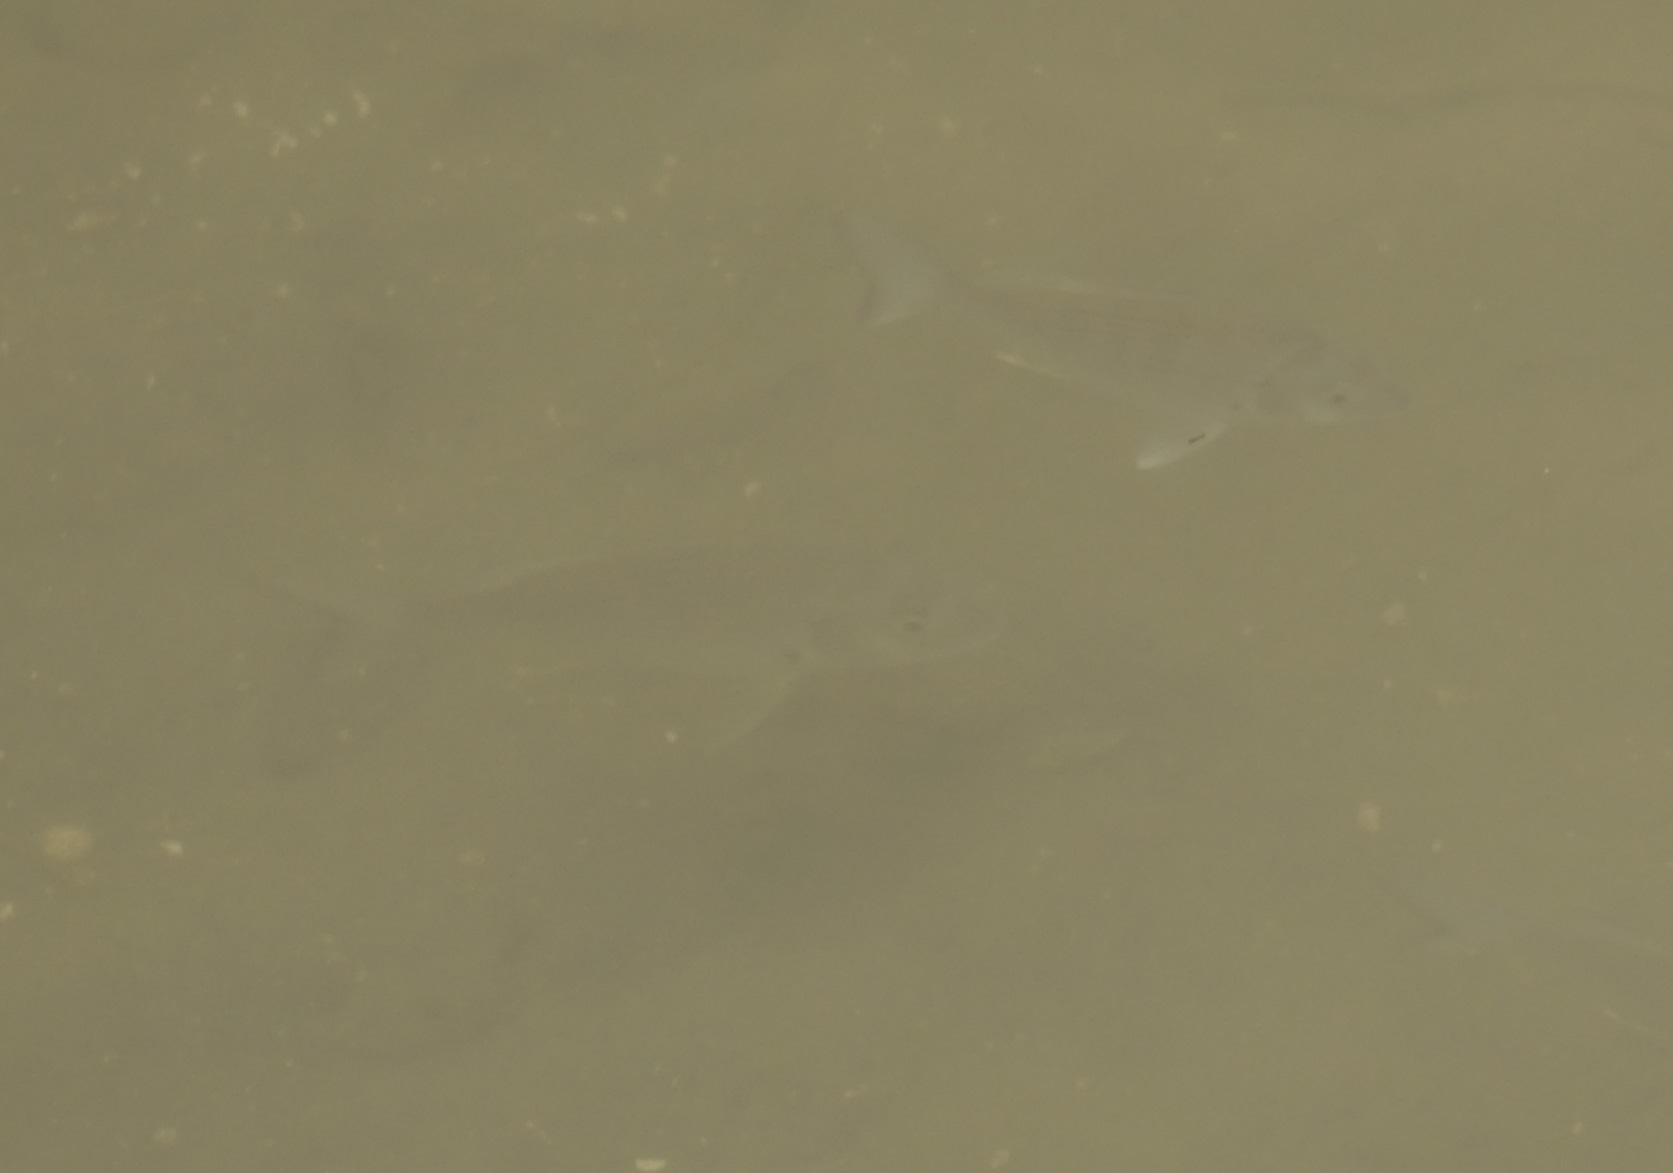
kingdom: Animalia
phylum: Chordata
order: Perciformes
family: Sparidae
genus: Acanthopagrus
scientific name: Acanthopagrus australis
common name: Surf bream
